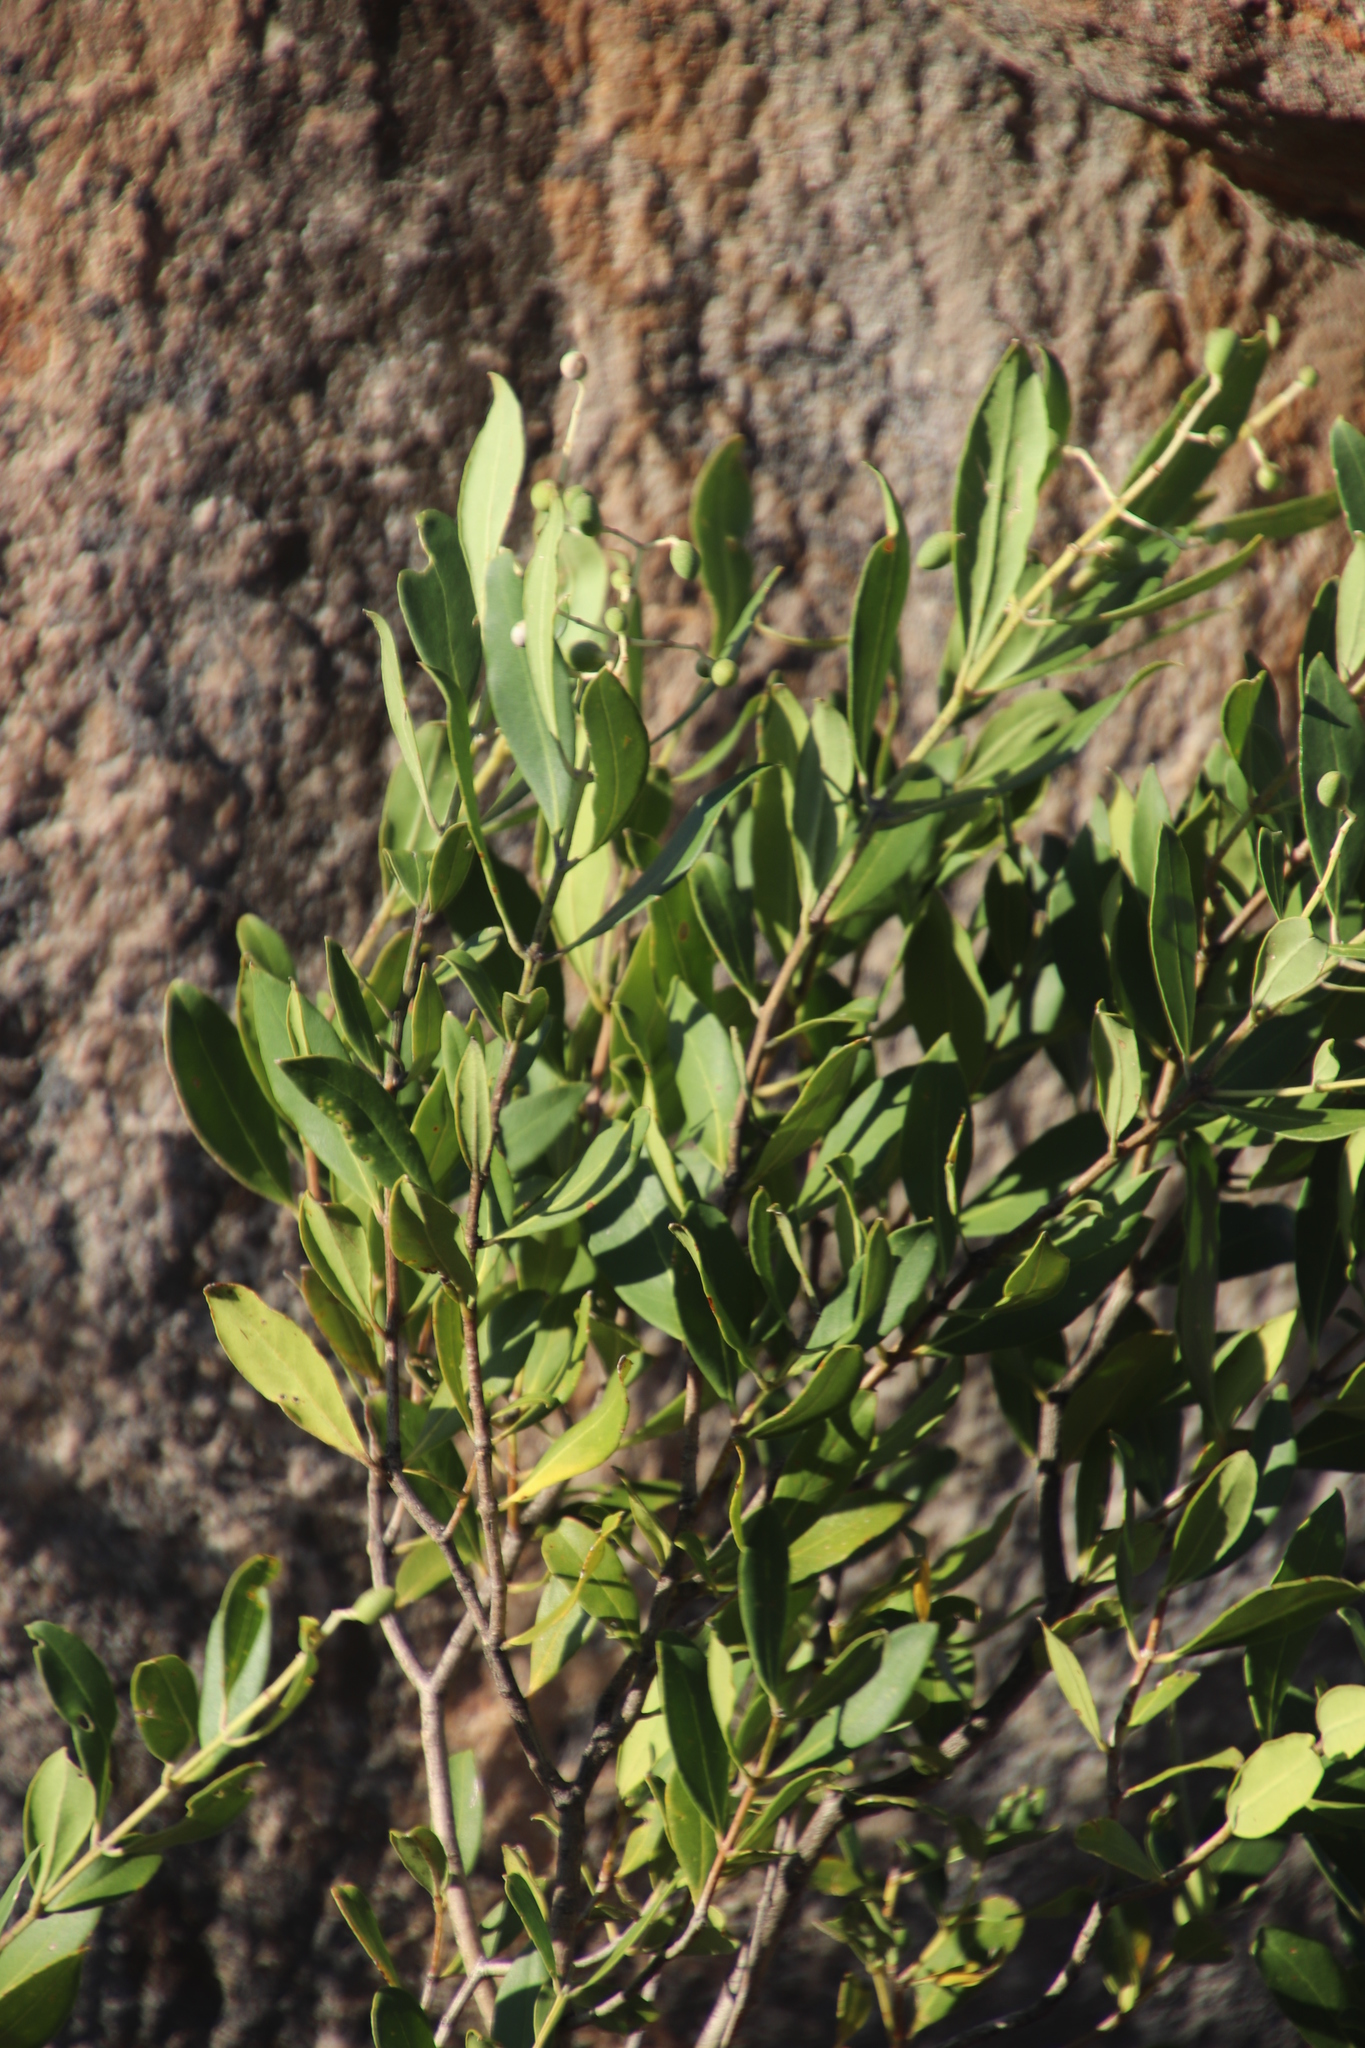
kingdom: Plantae
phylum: Tracheophyta
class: Magnoliopsida
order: Lamiales
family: Oleaceae
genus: Olea
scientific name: Olea capensis
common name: Black ironwood
